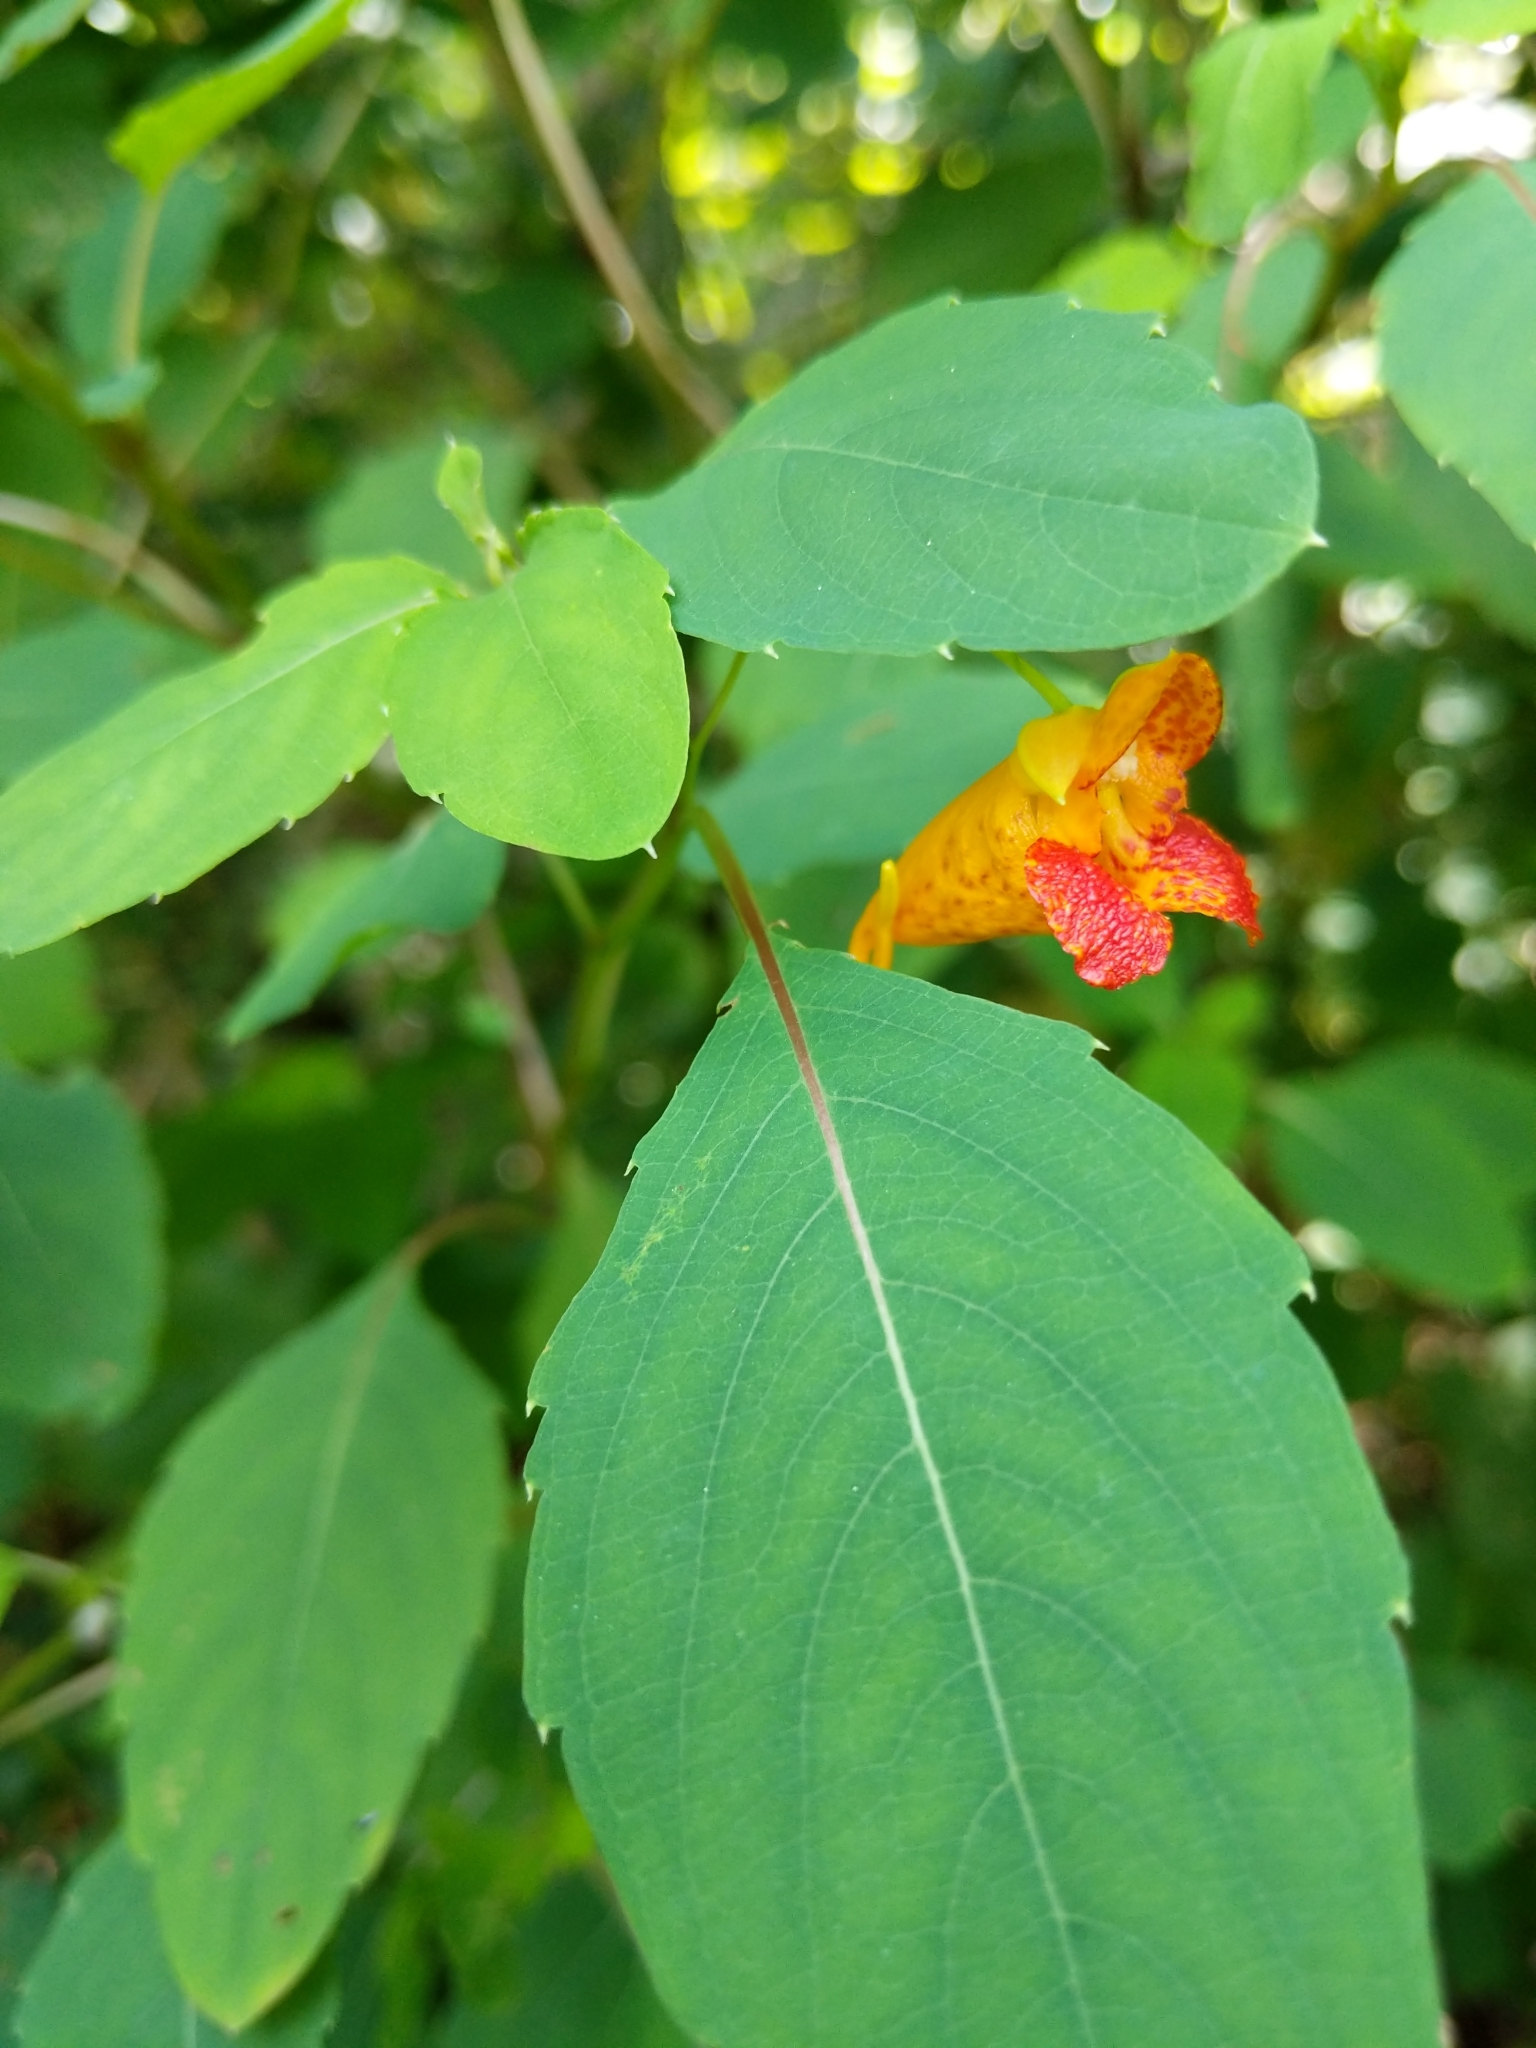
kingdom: Plantae
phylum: Tracheophyta
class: Magnoliopsida
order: Ericales
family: Balsaminaceae
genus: Impatiens
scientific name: Impatiens capensis
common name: Orange balsam
